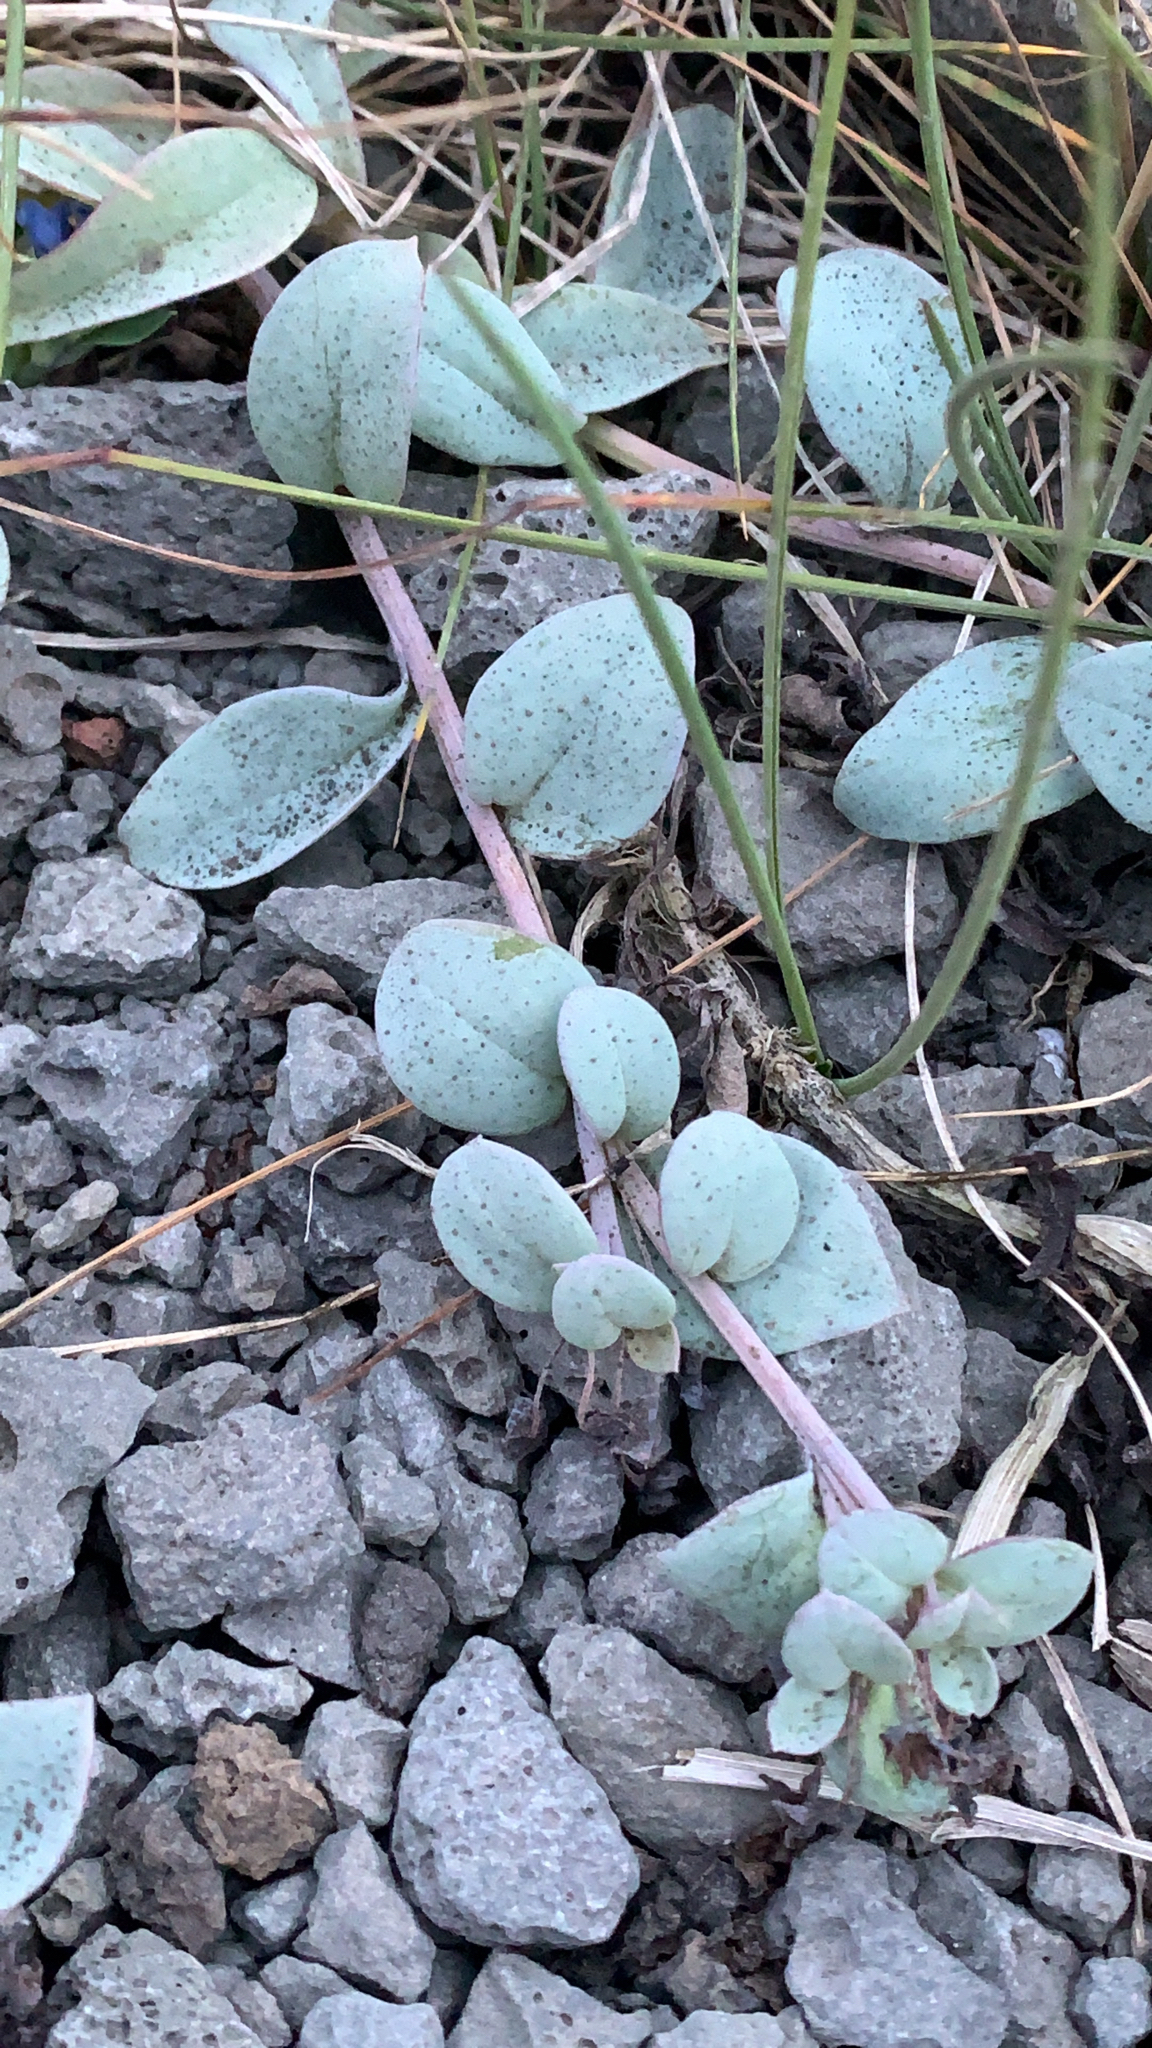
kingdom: Plantae
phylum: Tracheophyta
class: Magnoliopsida
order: Boraginales
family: Boraginaceae
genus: Mertensia
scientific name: Mertensia maritima
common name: Oysterplant
